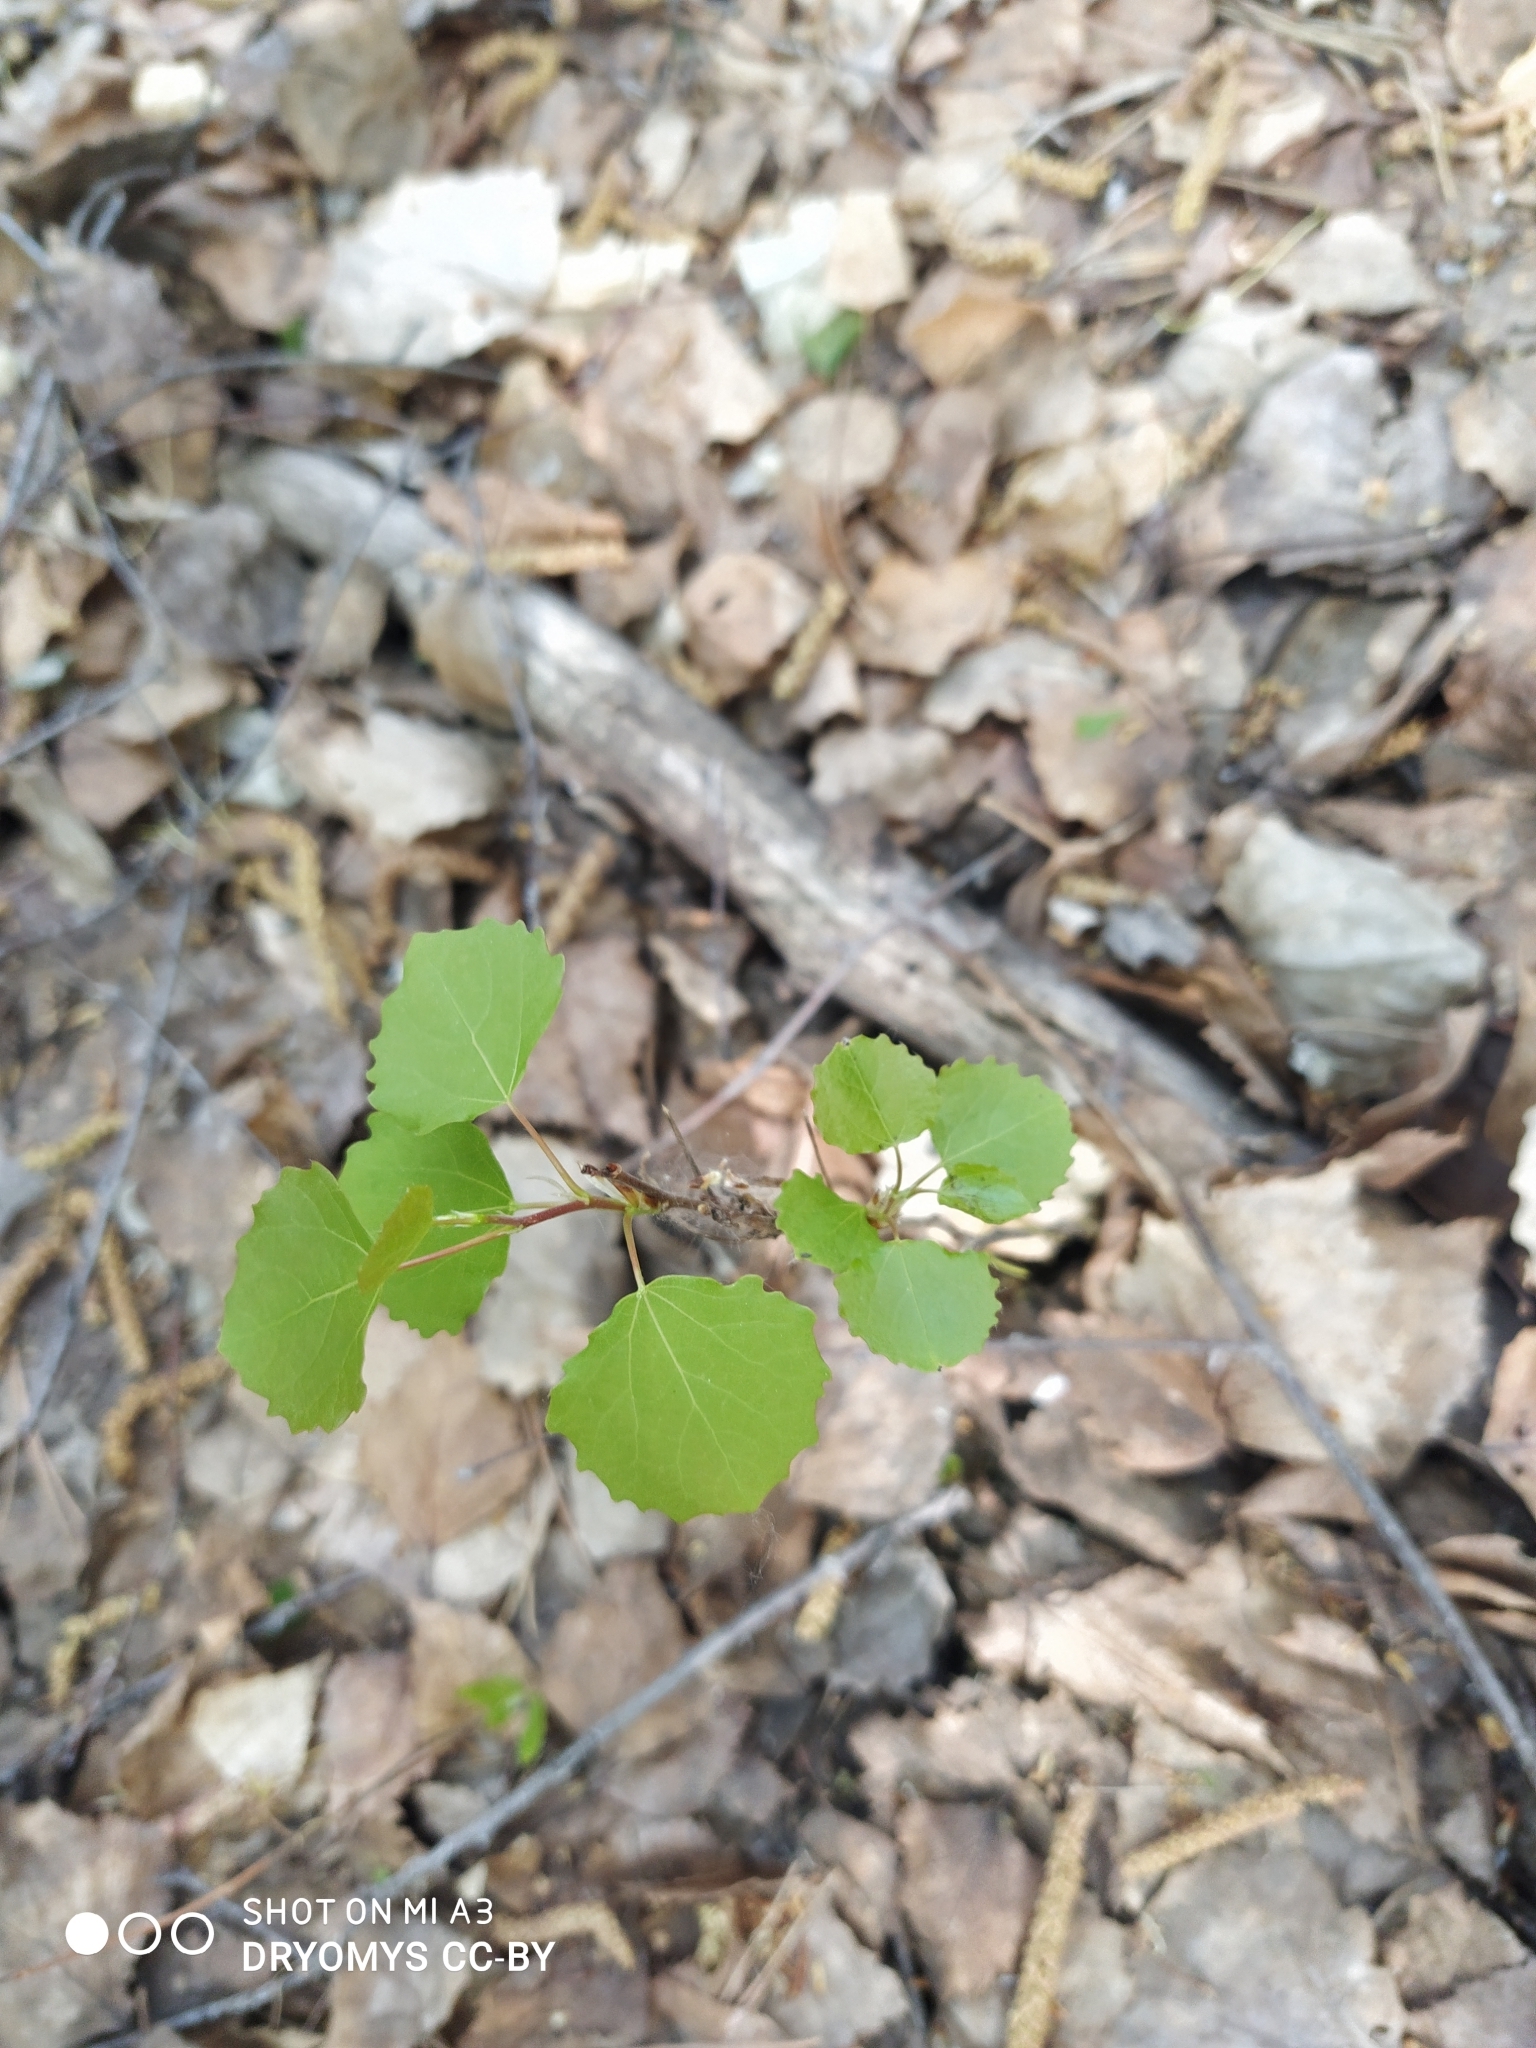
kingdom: Plantae
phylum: Tracheophyta
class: Magnoliopsida
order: Malpighiales
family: Salicaceae
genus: Populus
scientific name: Populus tremula
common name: European aspen
